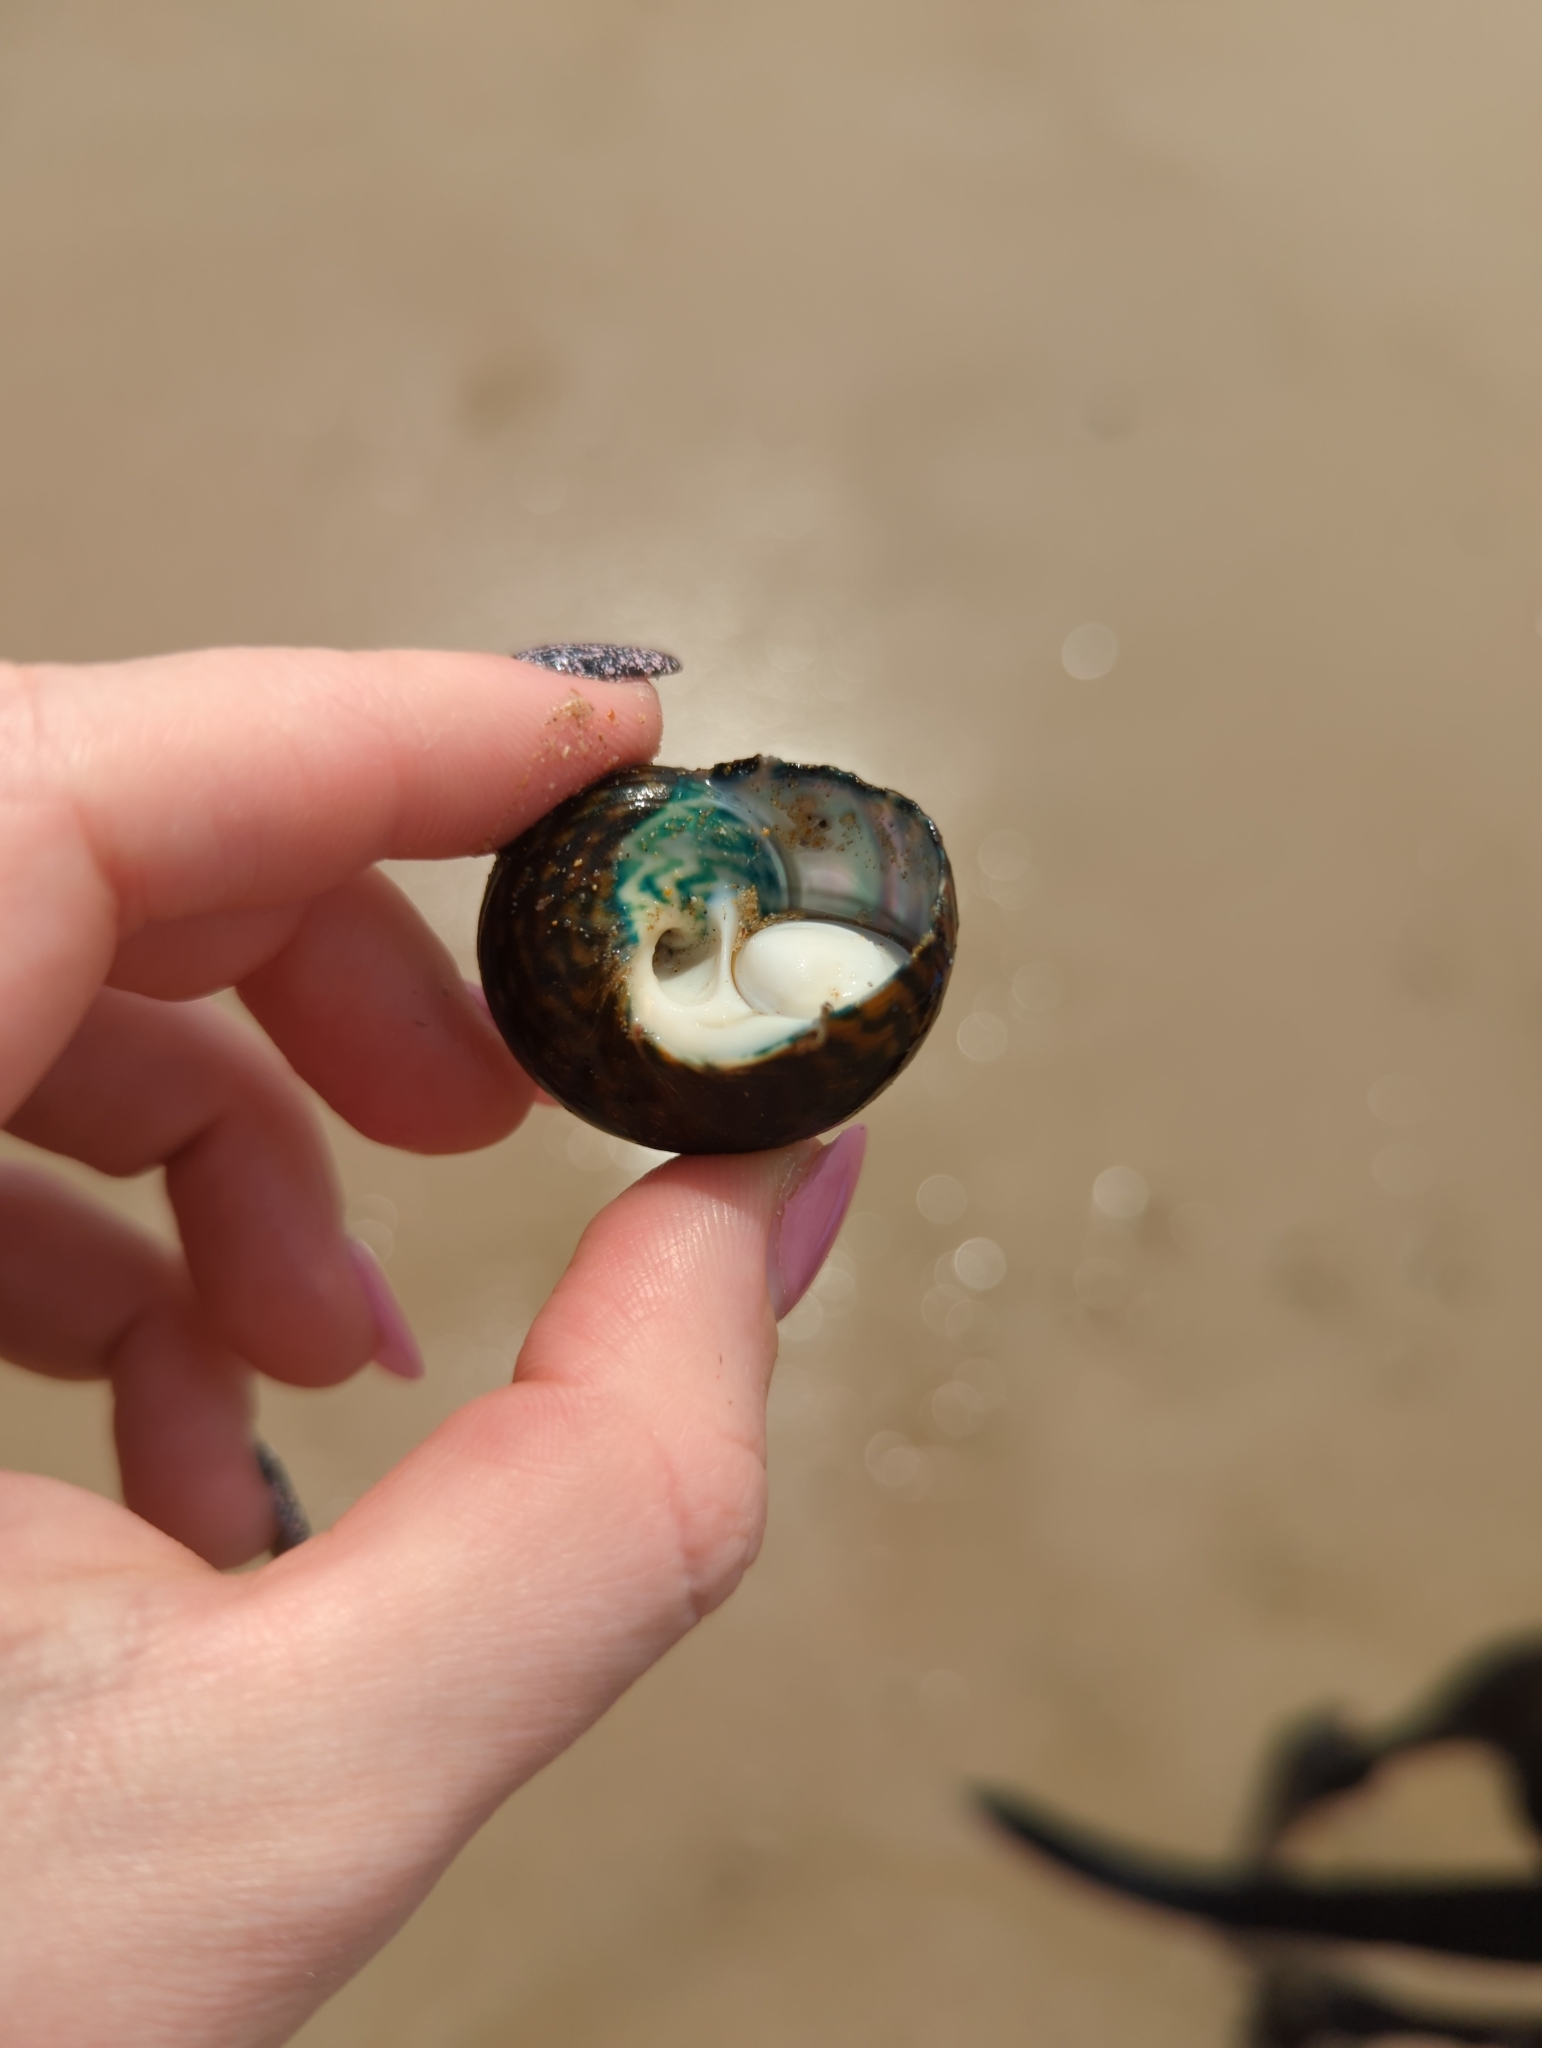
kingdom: Animalia
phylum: Mollusca
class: Gastropoda
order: Trochida
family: Turbinidae
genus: Lunella
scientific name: Lunella undulata
